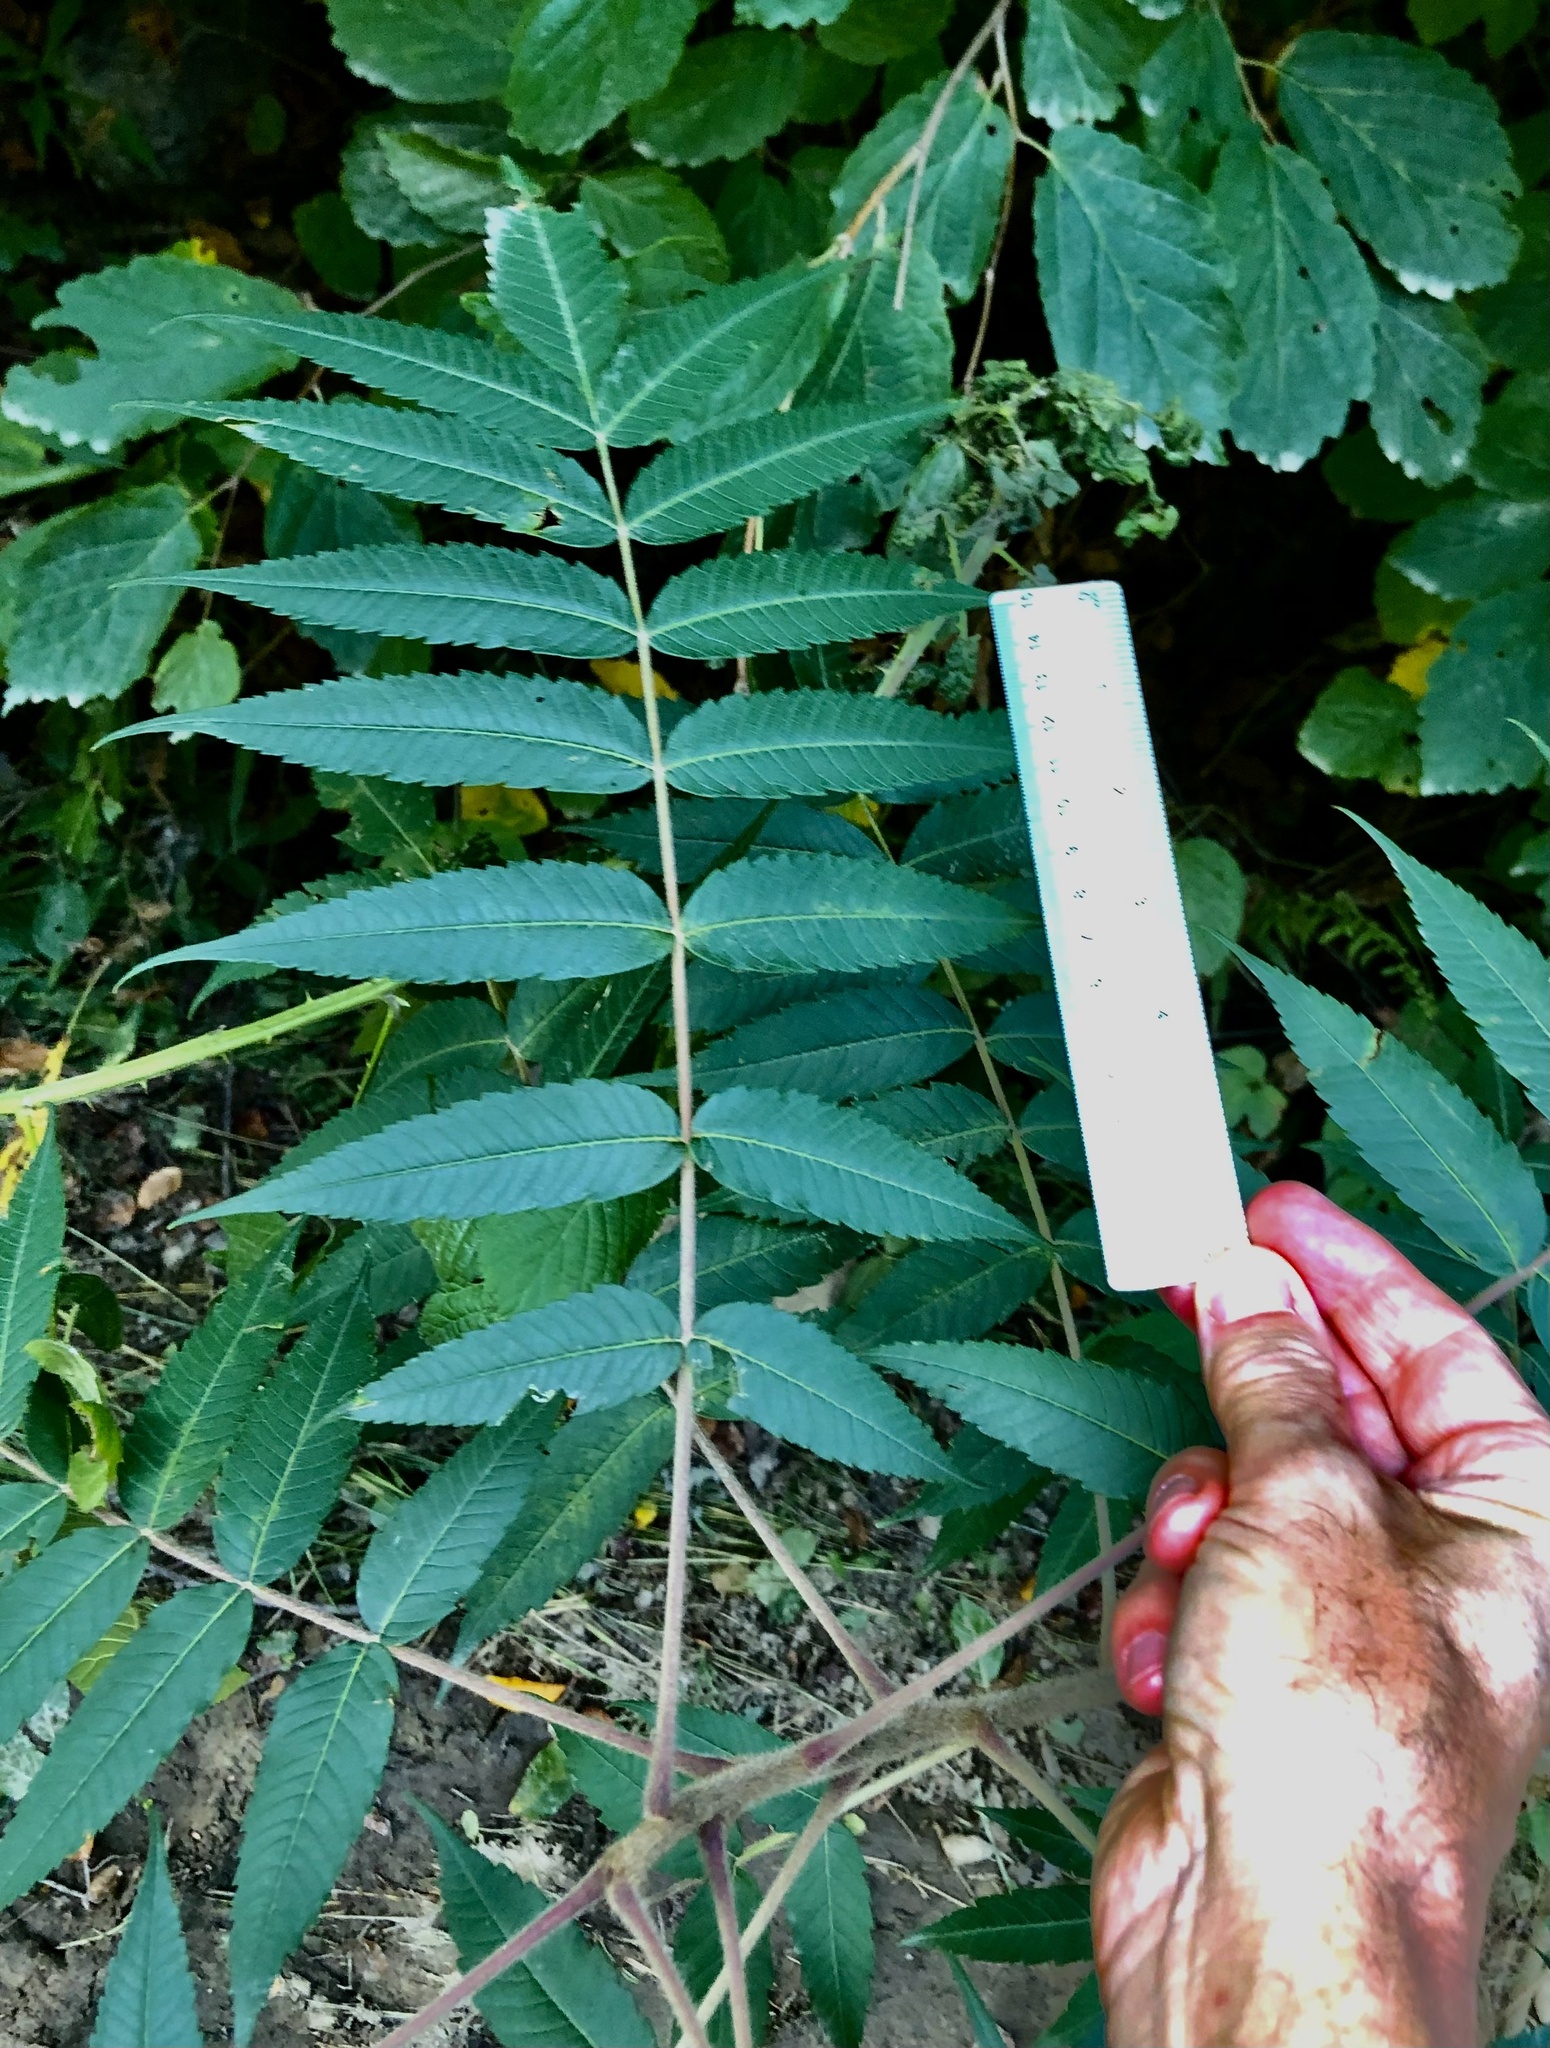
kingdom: Plantae
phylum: Tracheophyta
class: Magnoliopsida
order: Sapindales
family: Anacardiaceae
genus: Rhus
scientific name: Rhus typhina
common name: Staghorn sumac
